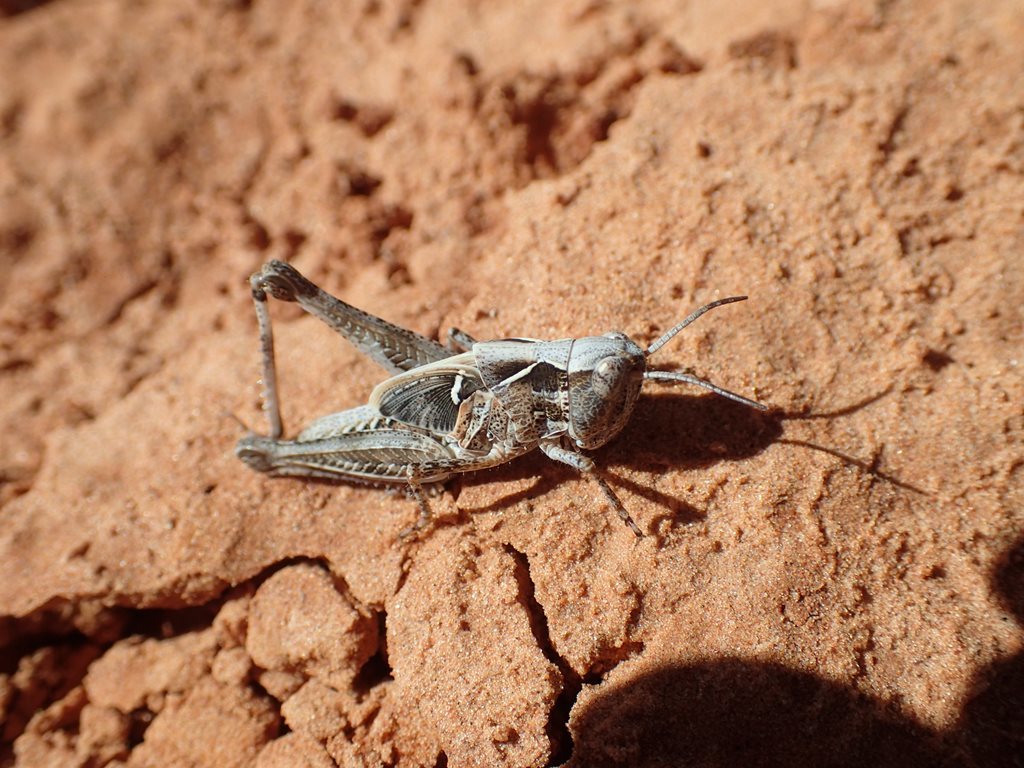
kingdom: Animalia
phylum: Arthropoda
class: Insecta
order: Orthoptera
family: Acrididae
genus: Chortoicetes
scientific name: Chortoicetes terminifera
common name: Australian plague locust
